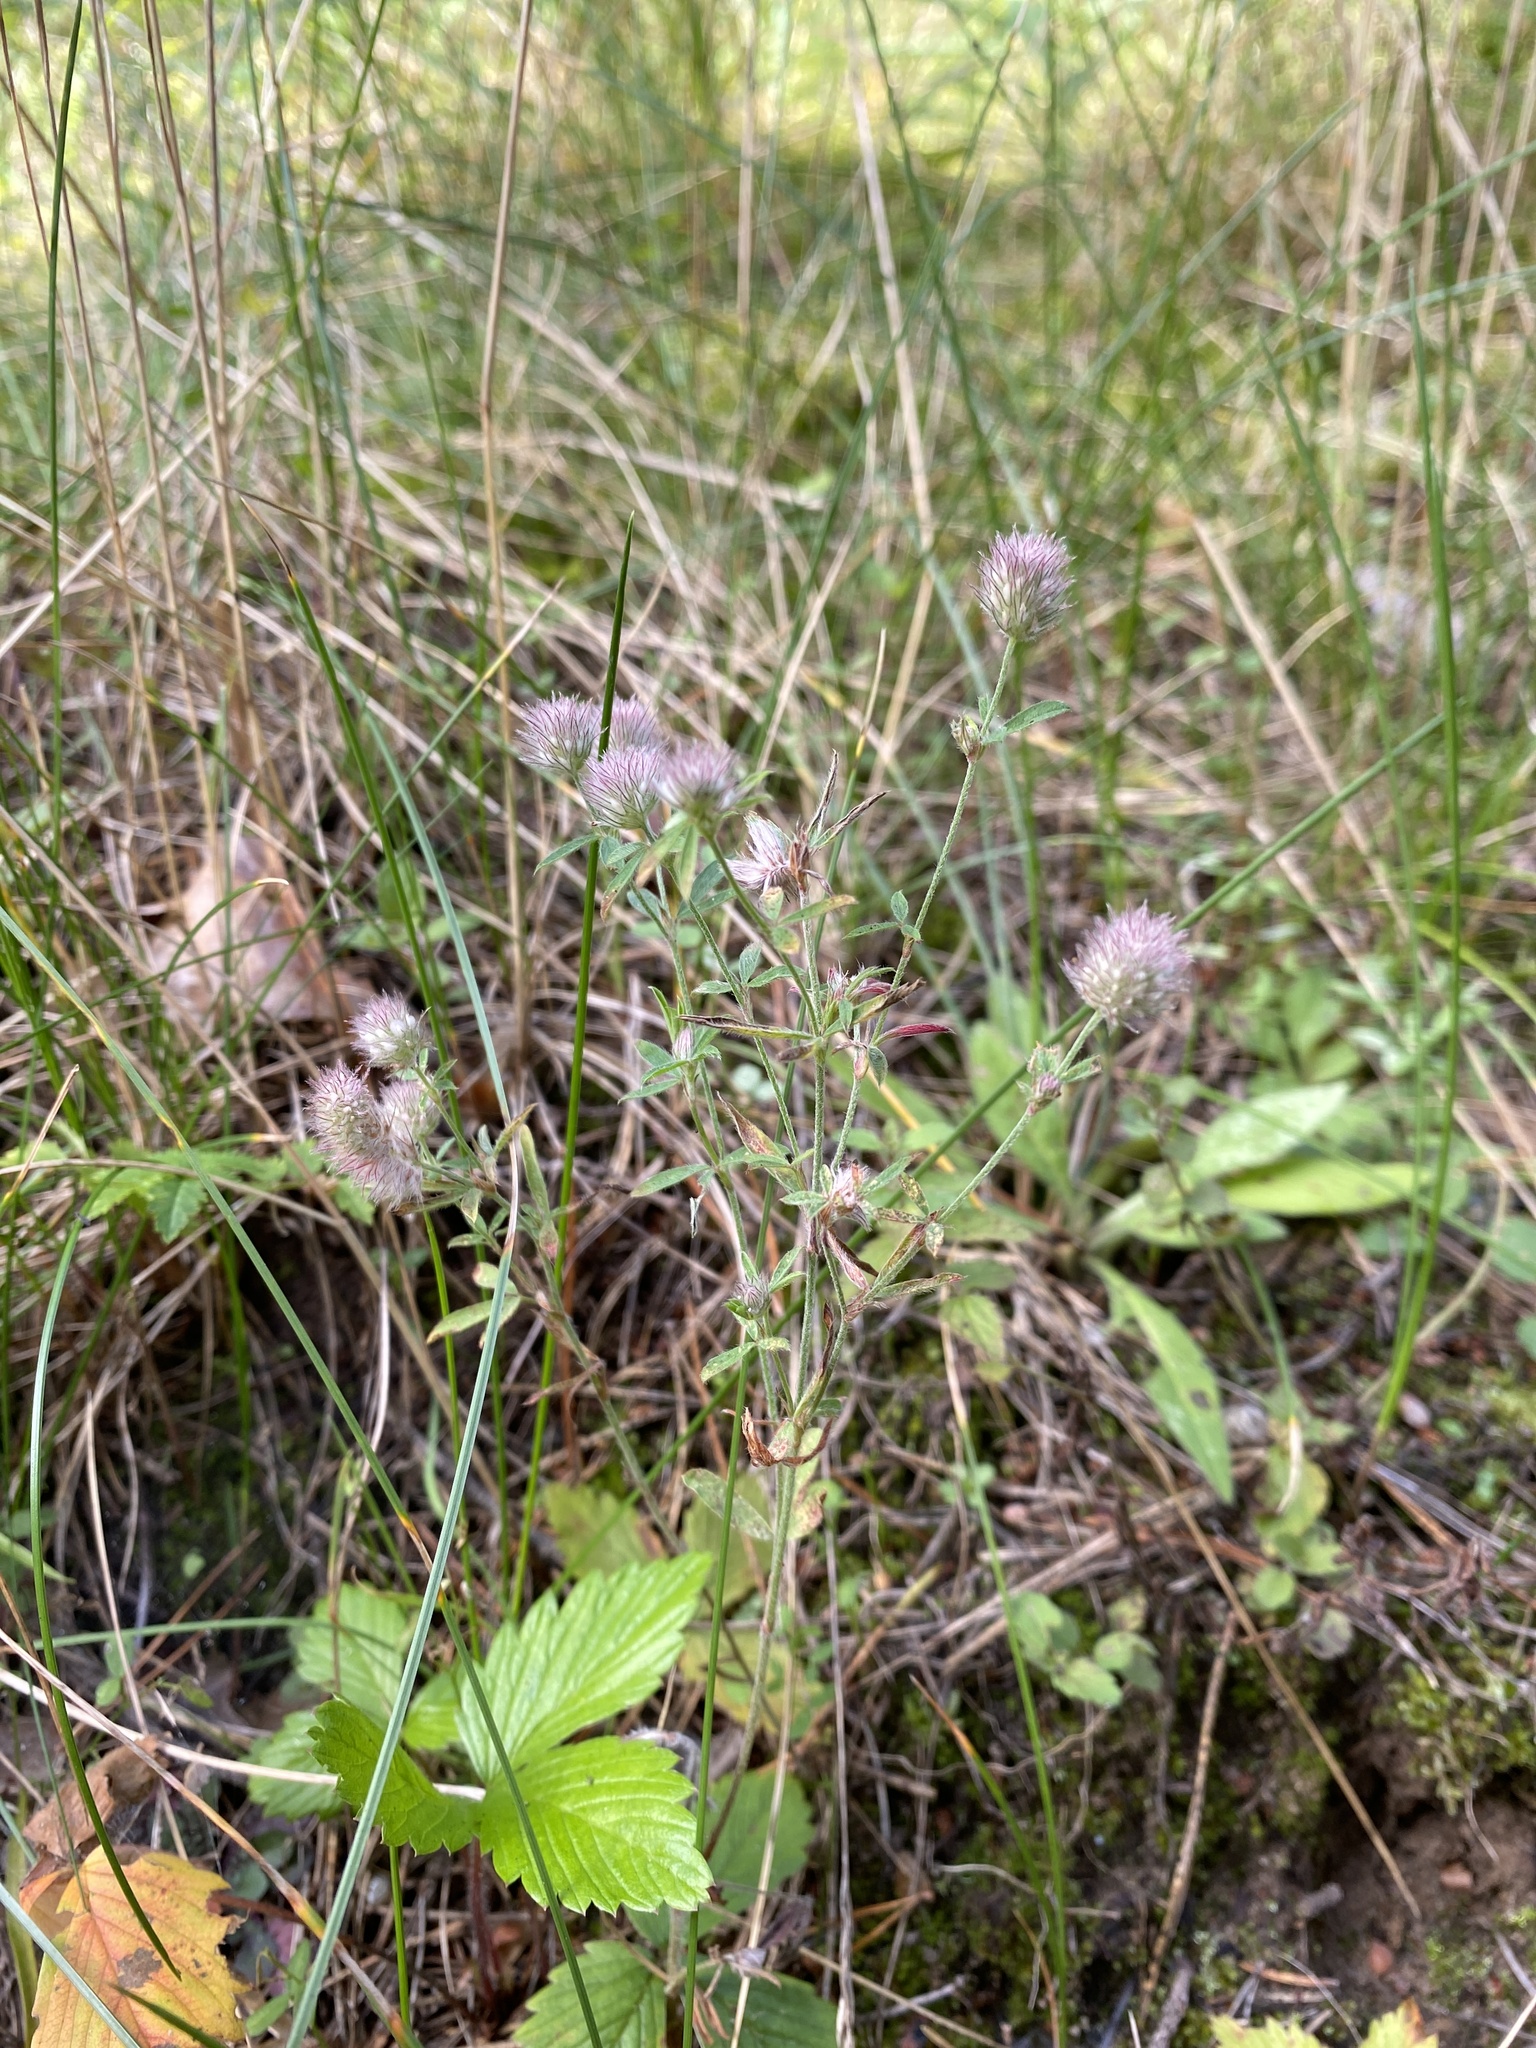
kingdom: Plantae
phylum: Tracheophyta
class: Magnoliopsida
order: Fabales
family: Fabaceae
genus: Trifolium
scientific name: Trifolium arvense
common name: Hare's-foot clover
